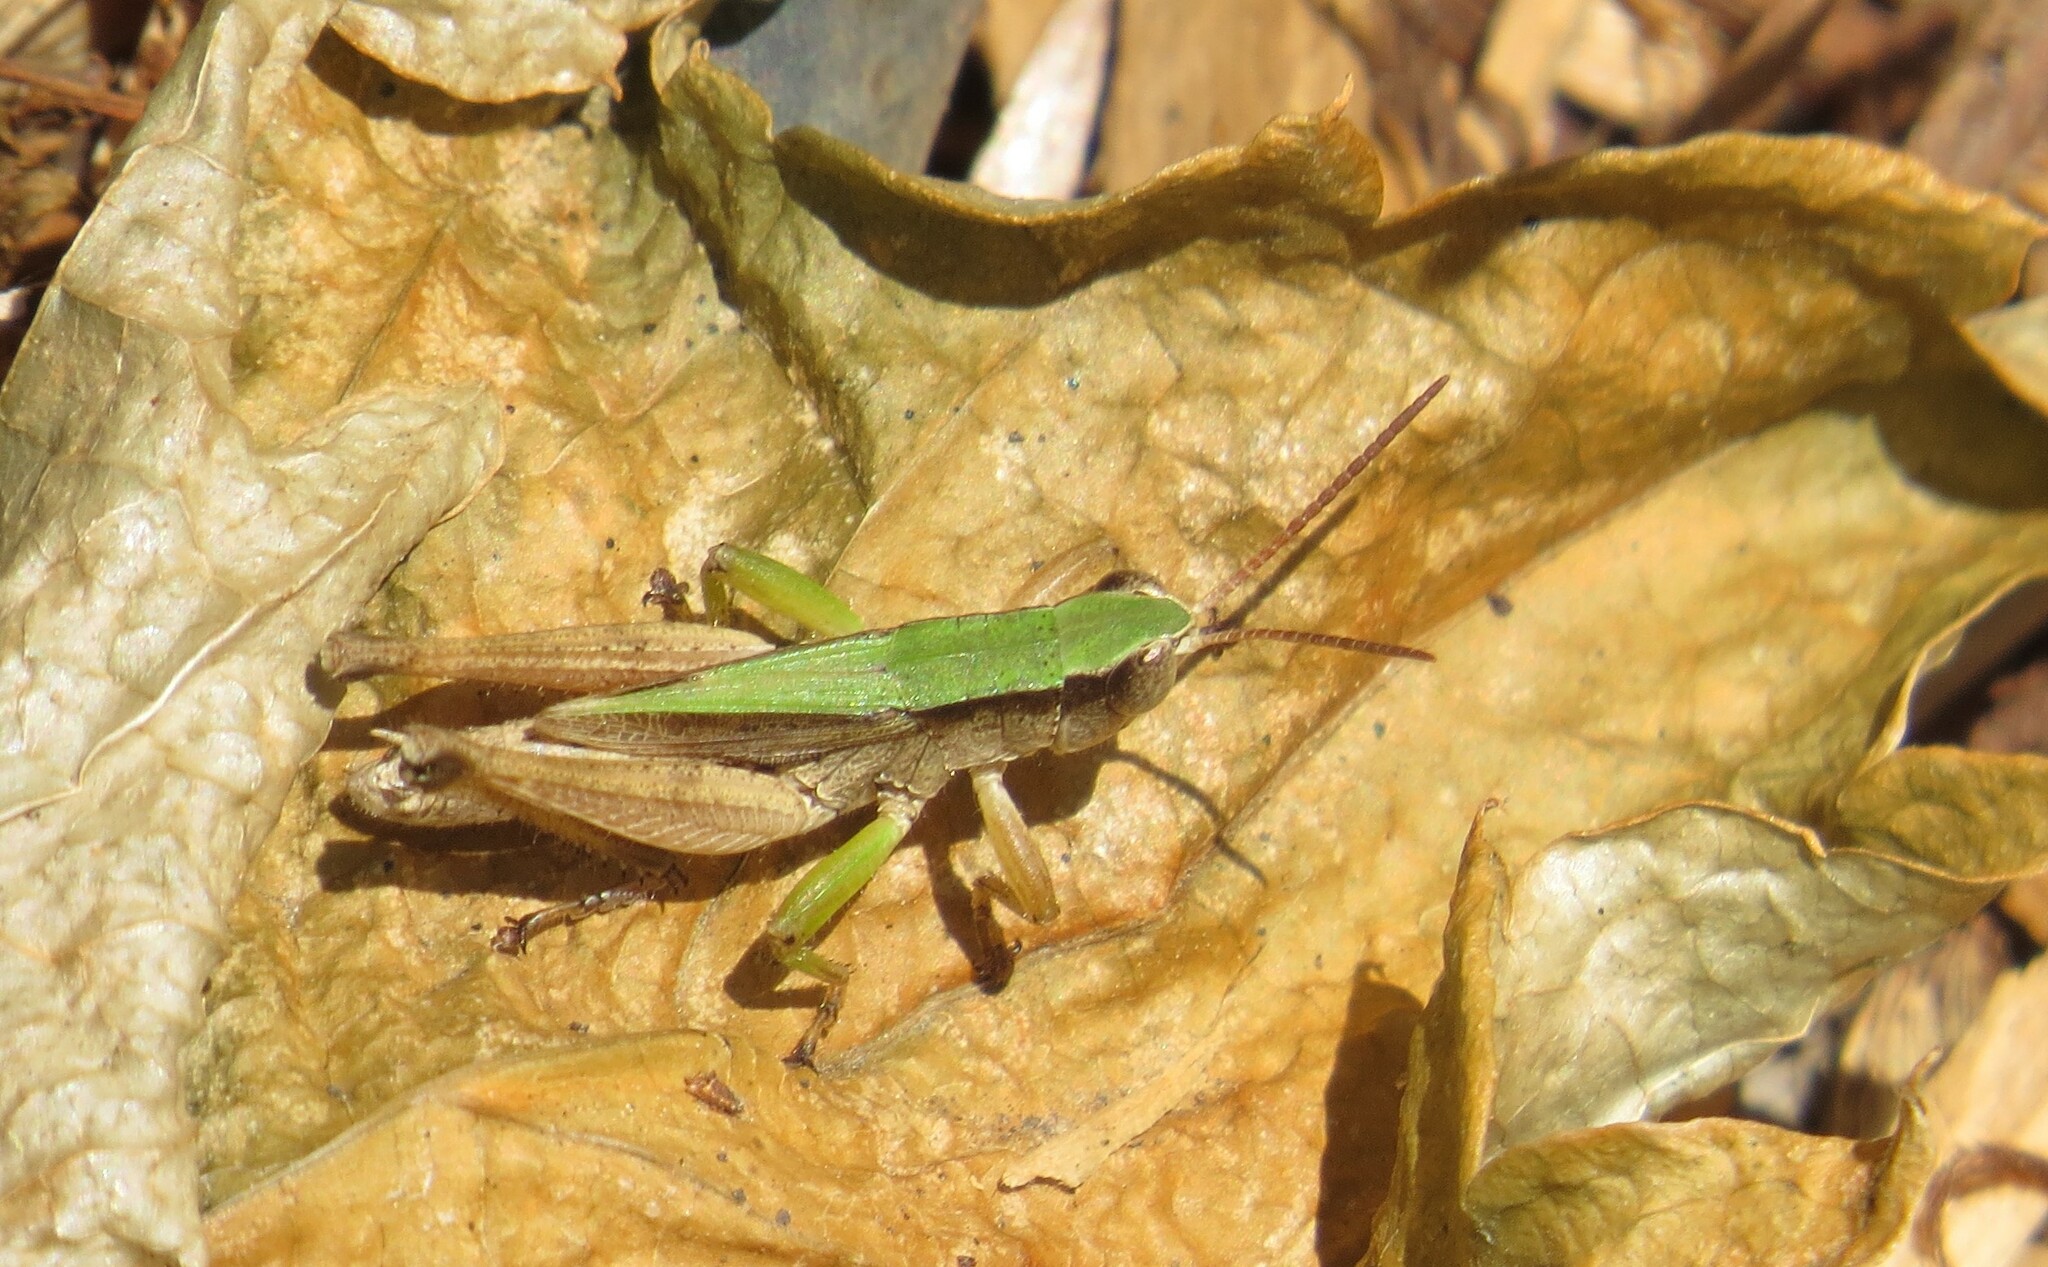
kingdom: Animalia
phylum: Arthropoda
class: Insecta
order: Orthoptera
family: Acrididae
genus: Dichromorpha
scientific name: Dichromorpha viridis
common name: Short-winged green grasshopper
